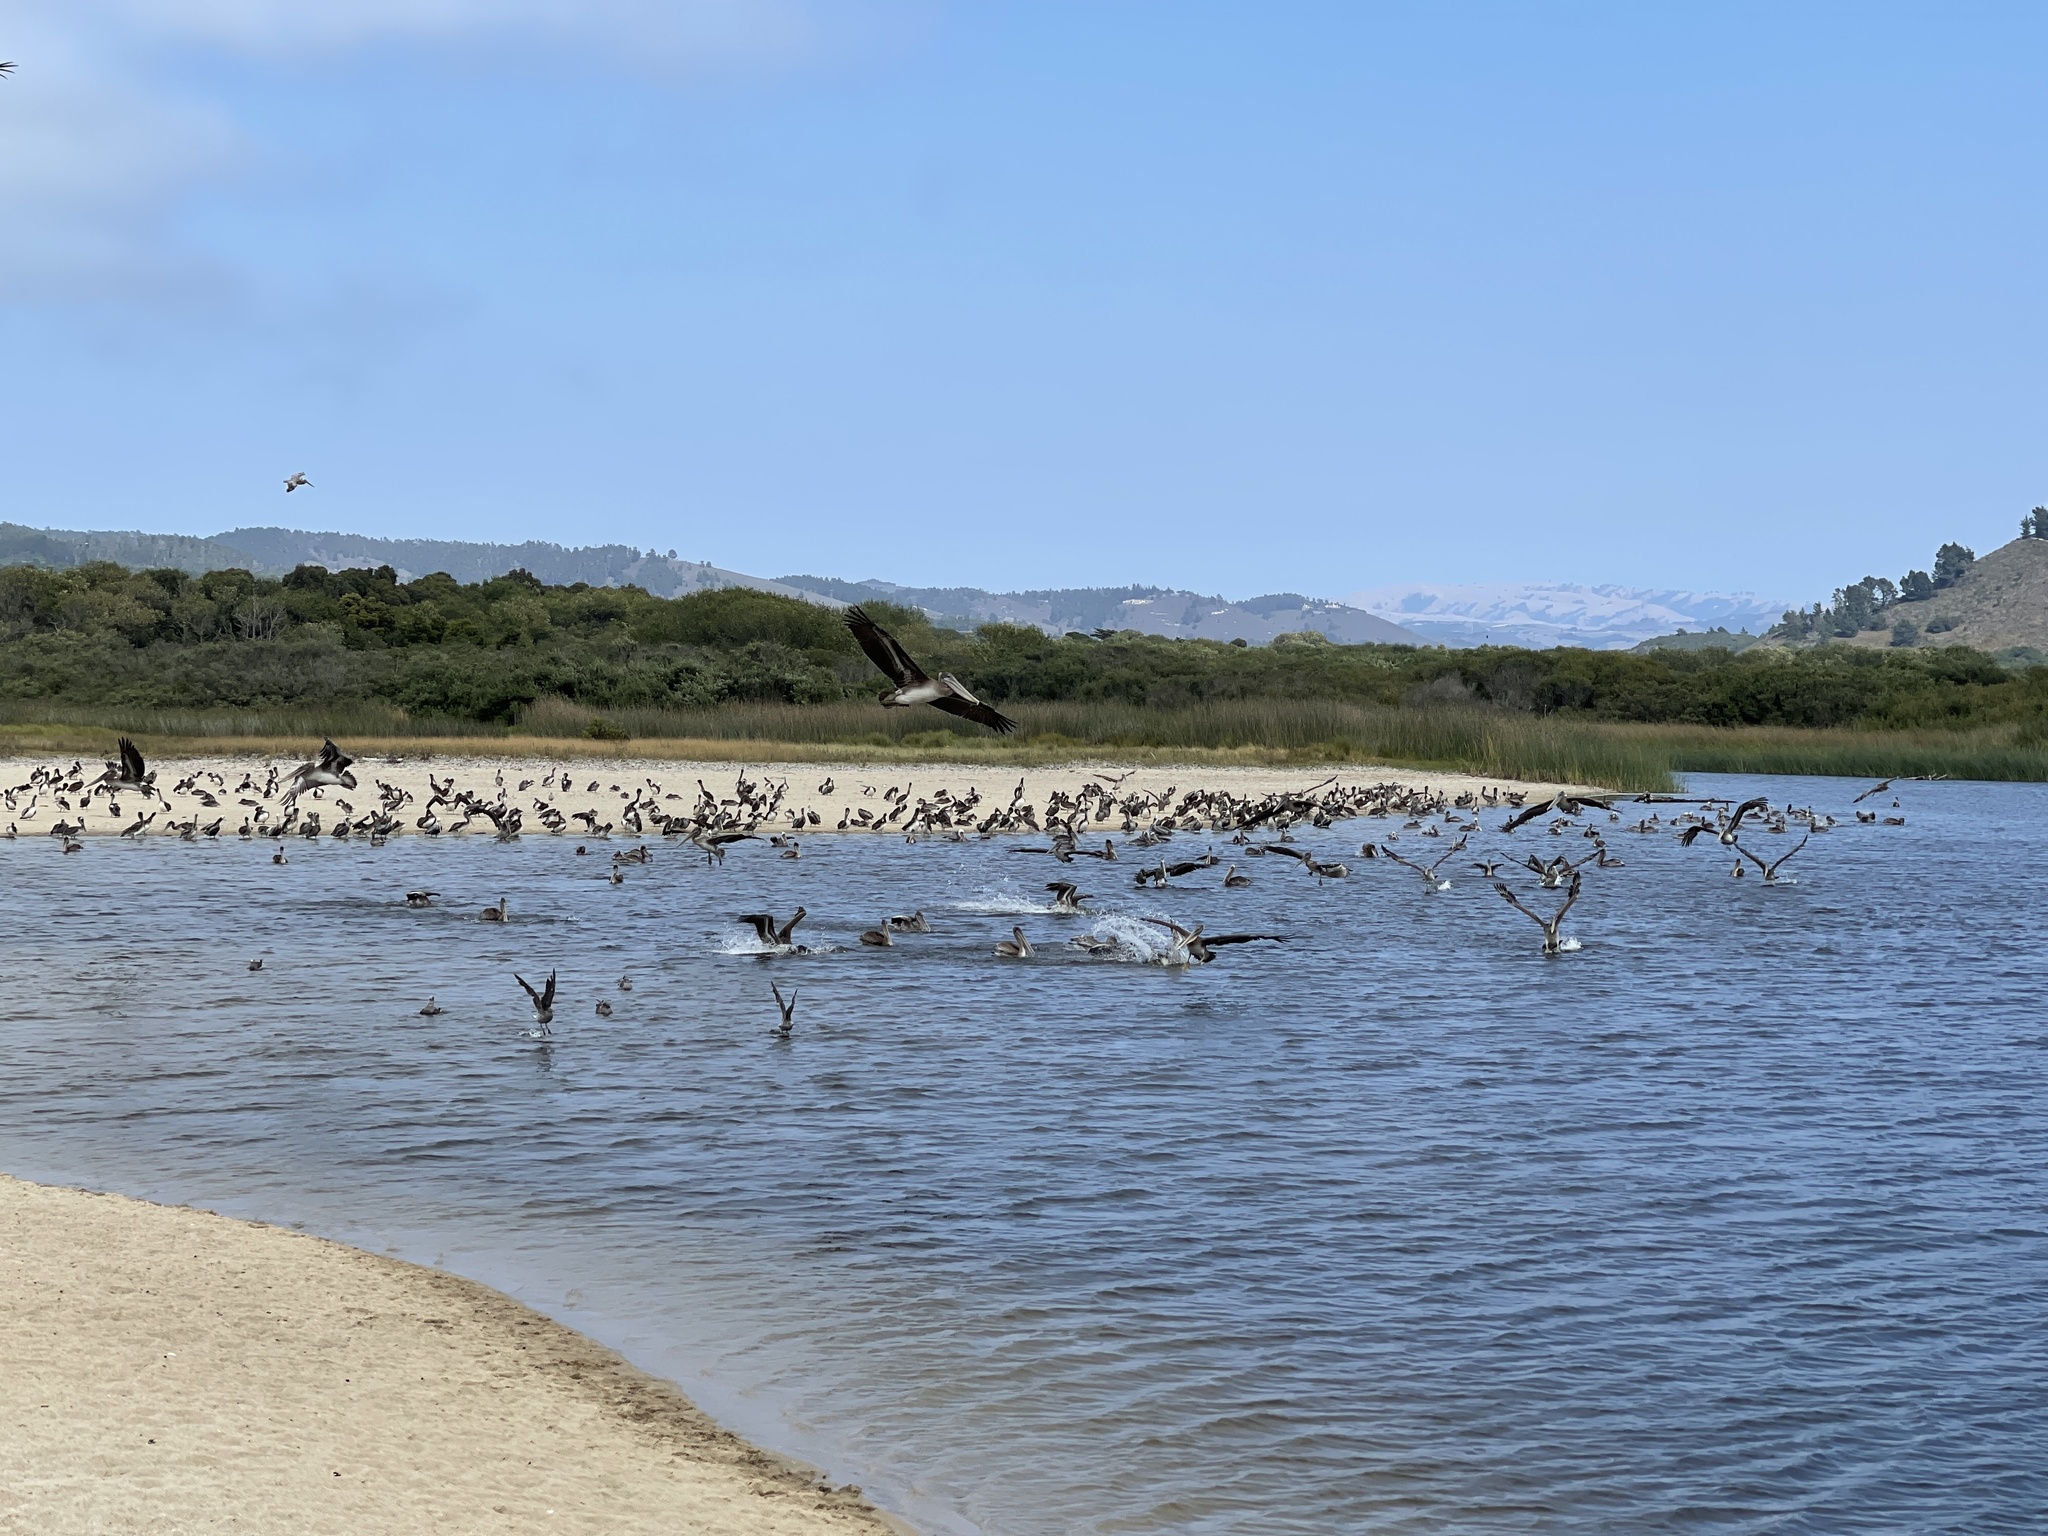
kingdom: Animalia
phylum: Chordata
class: Aves
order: Pelecaniformes
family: Pelecanidae
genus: Pelecanus
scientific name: Pelecanus occidentalis
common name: Brown pelican
